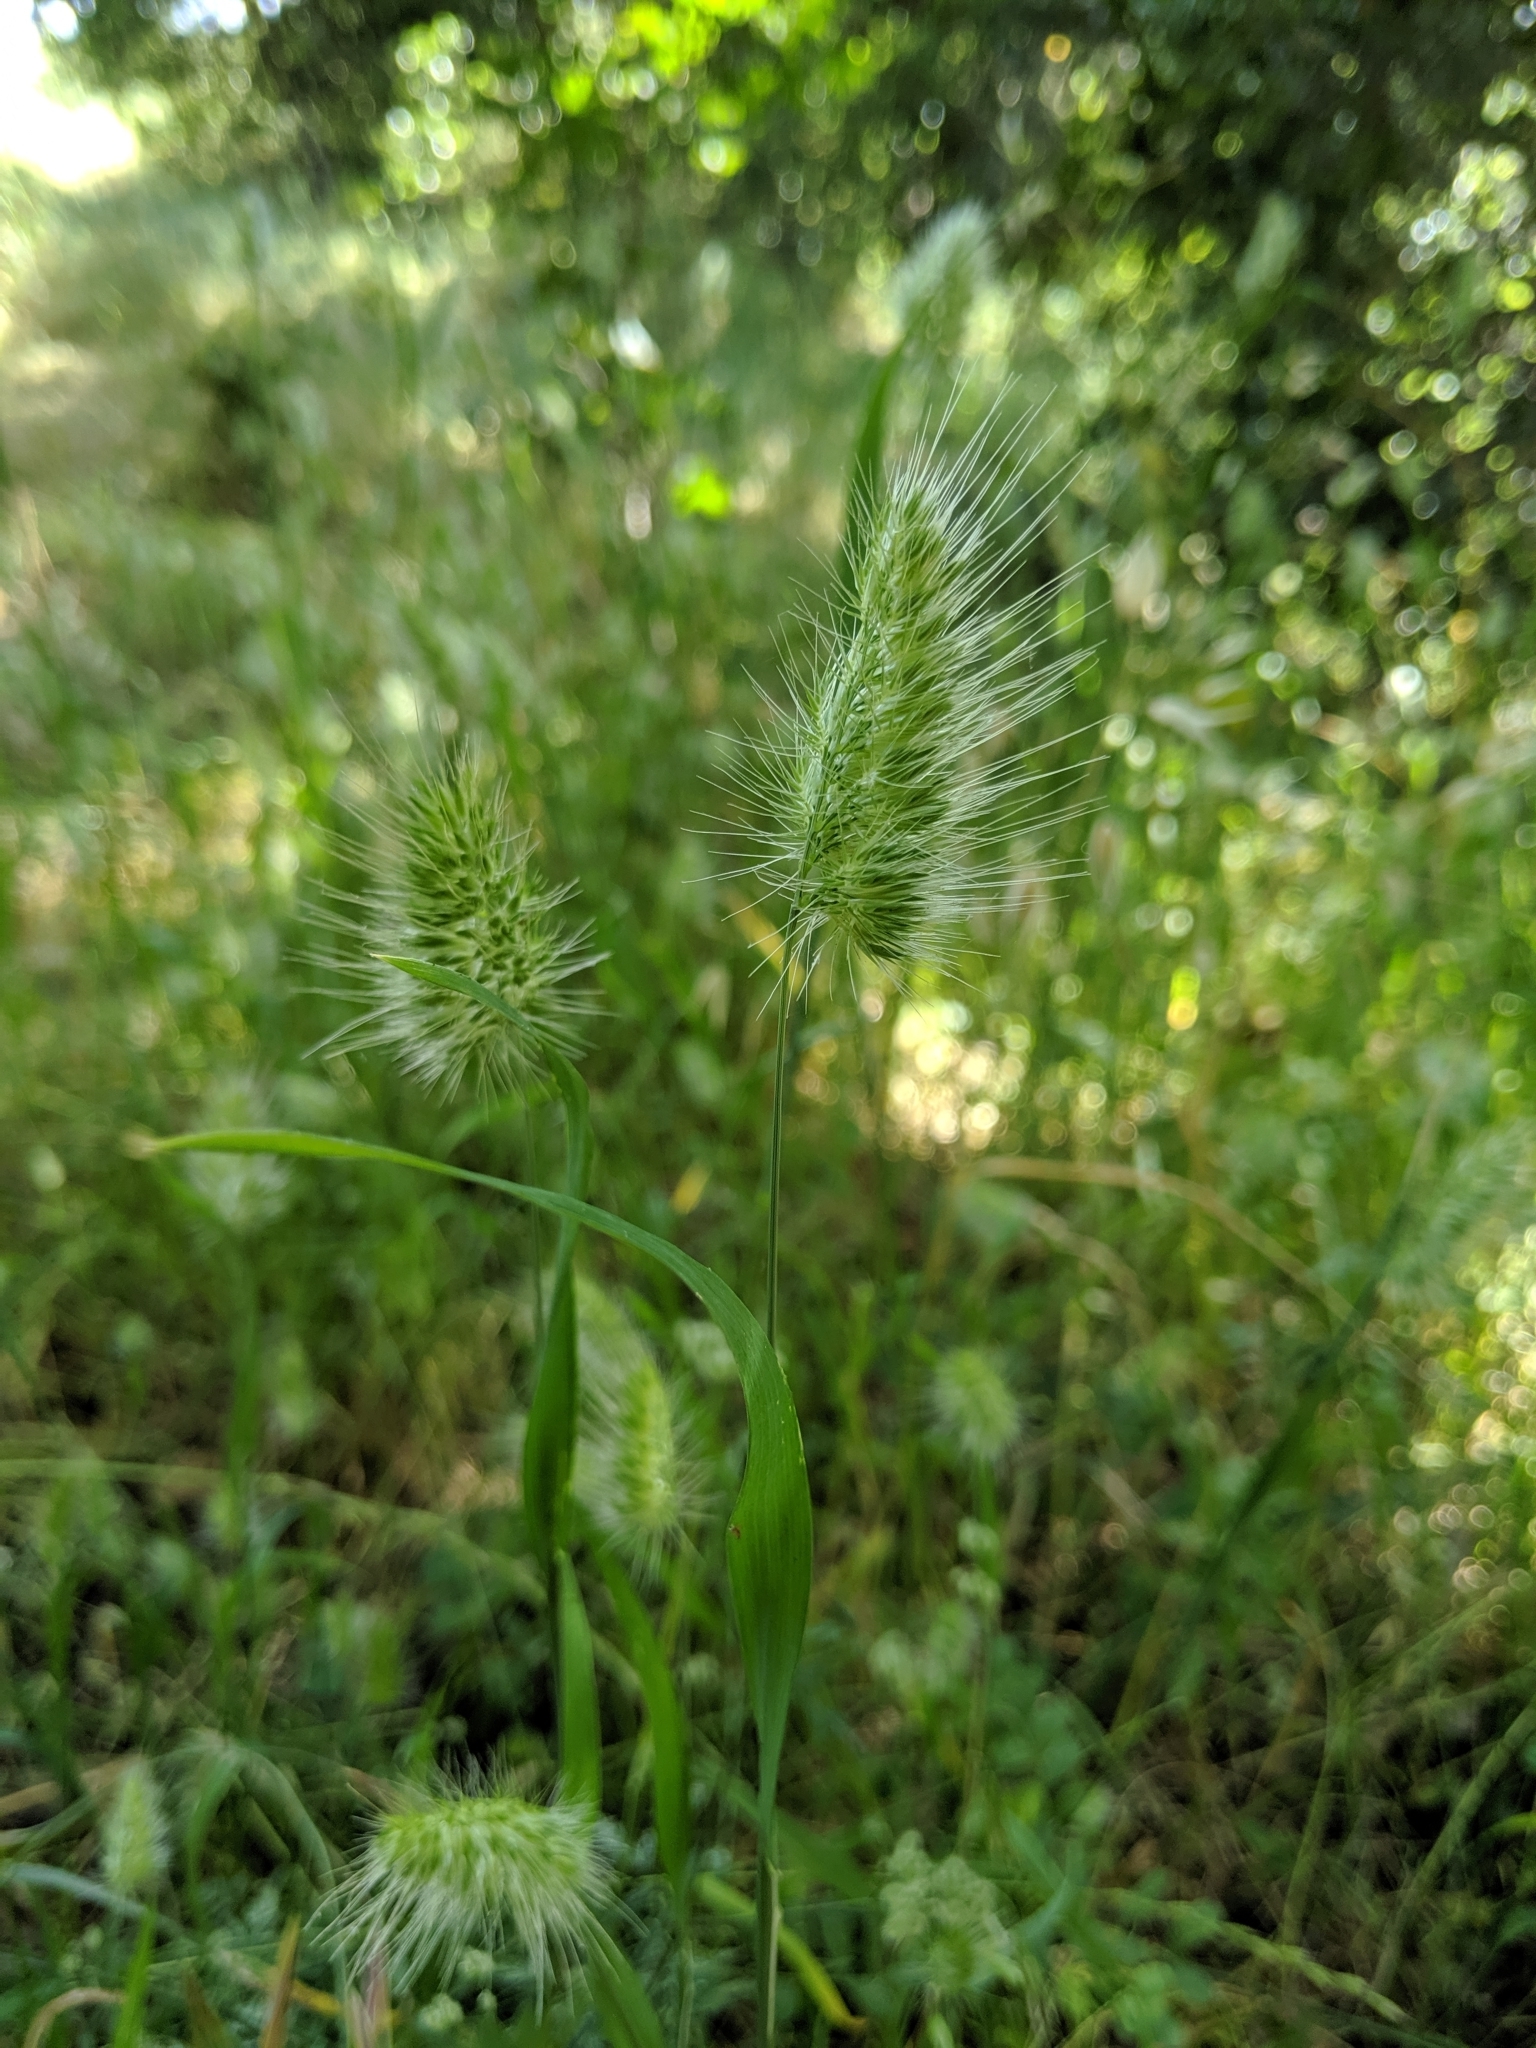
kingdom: Plantae
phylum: Tracheophyta
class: Liliopsida
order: Poales
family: Poaceae
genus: Cynosurus
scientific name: Cynosurus echinatus
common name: Rough dog's-tail
